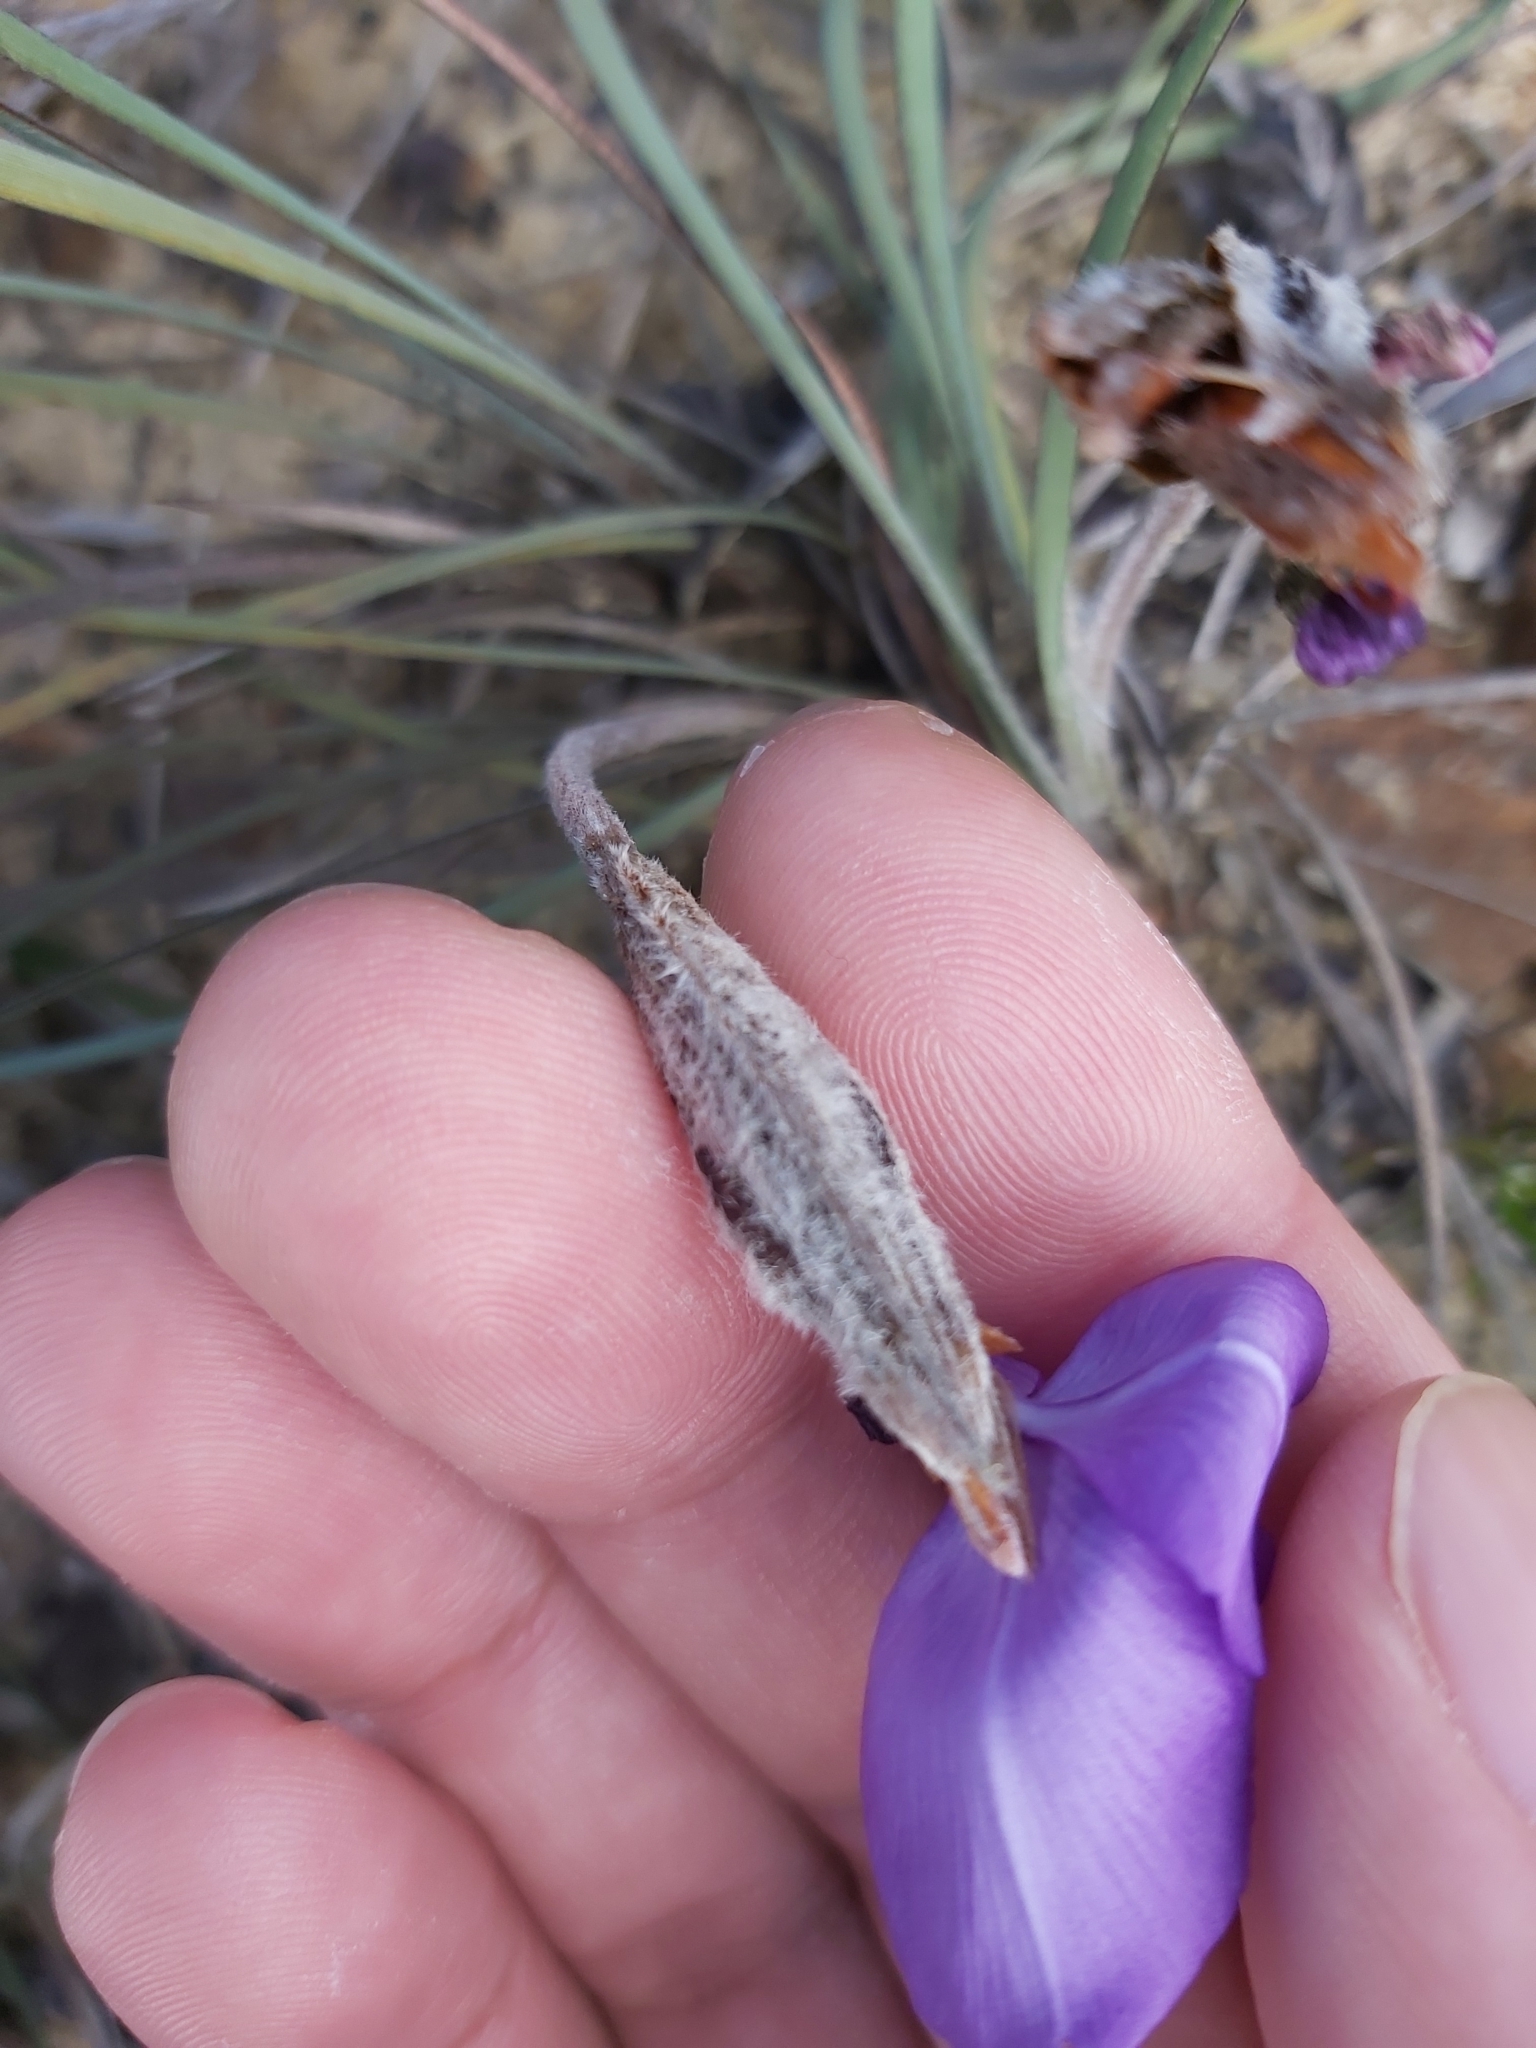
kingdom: Plantae
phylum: Tracheophyta
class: Liliopsida
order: Asparagales
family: Iridaceae
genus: Patersonia
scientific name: Patersonia sericea
